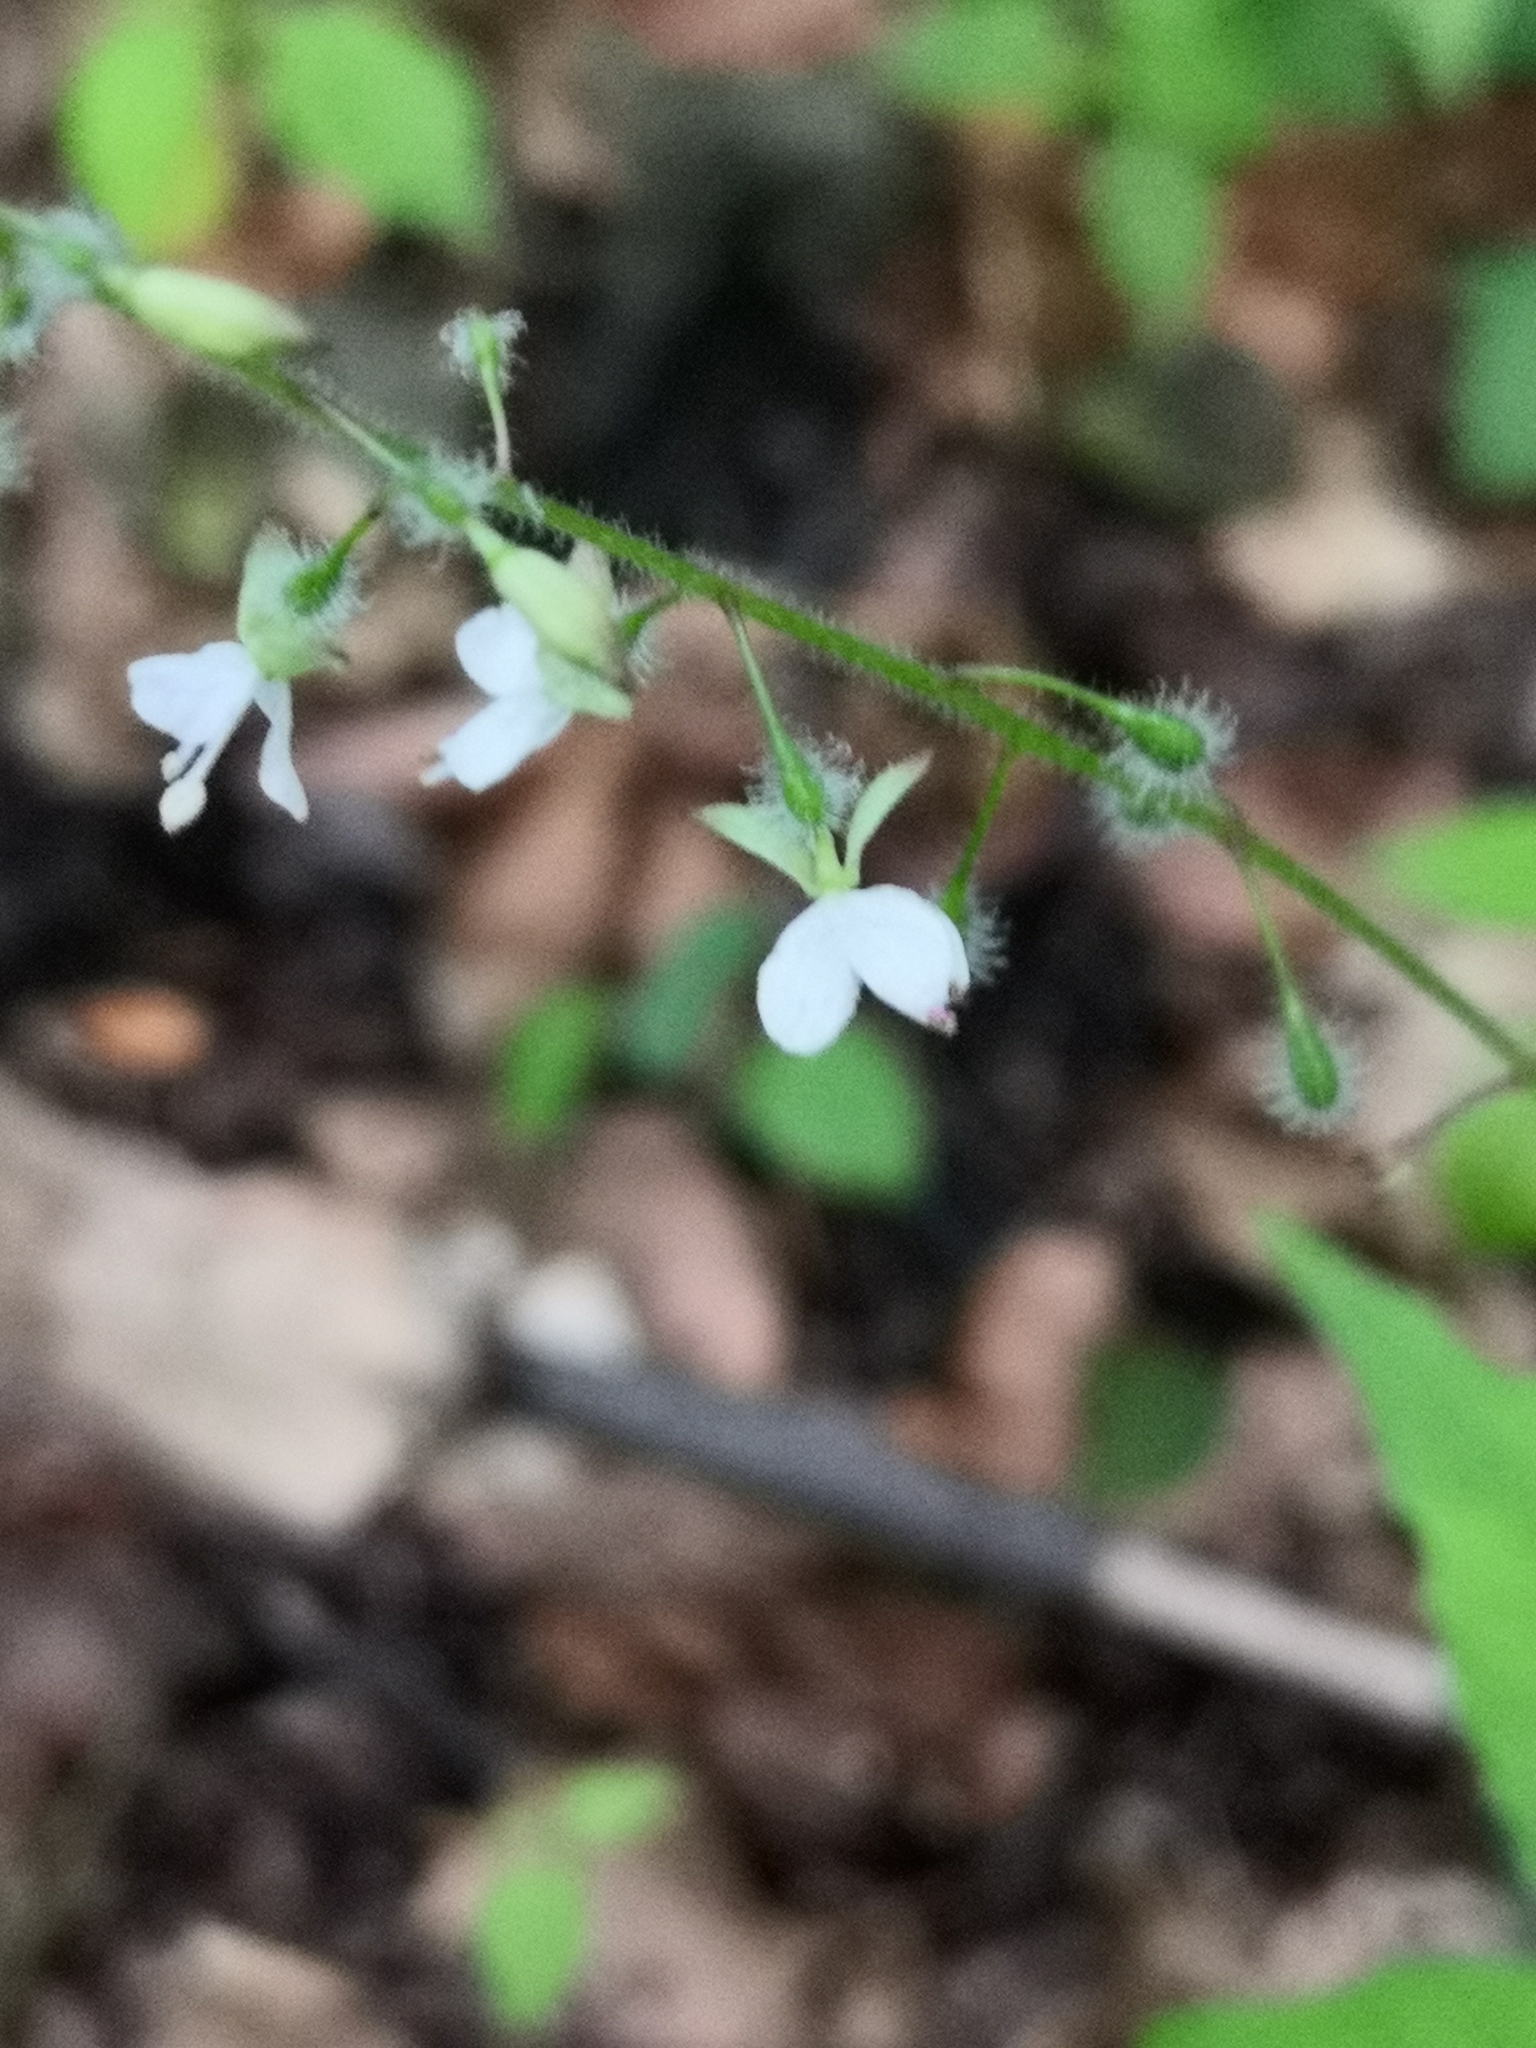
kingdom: Plantae
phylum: Tracheophyta
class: Magnoliopsida
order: Myrtales
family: Onagraceae
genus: Circaea
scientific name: Circaea lutetiana
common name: Enchanter's-nightshade
